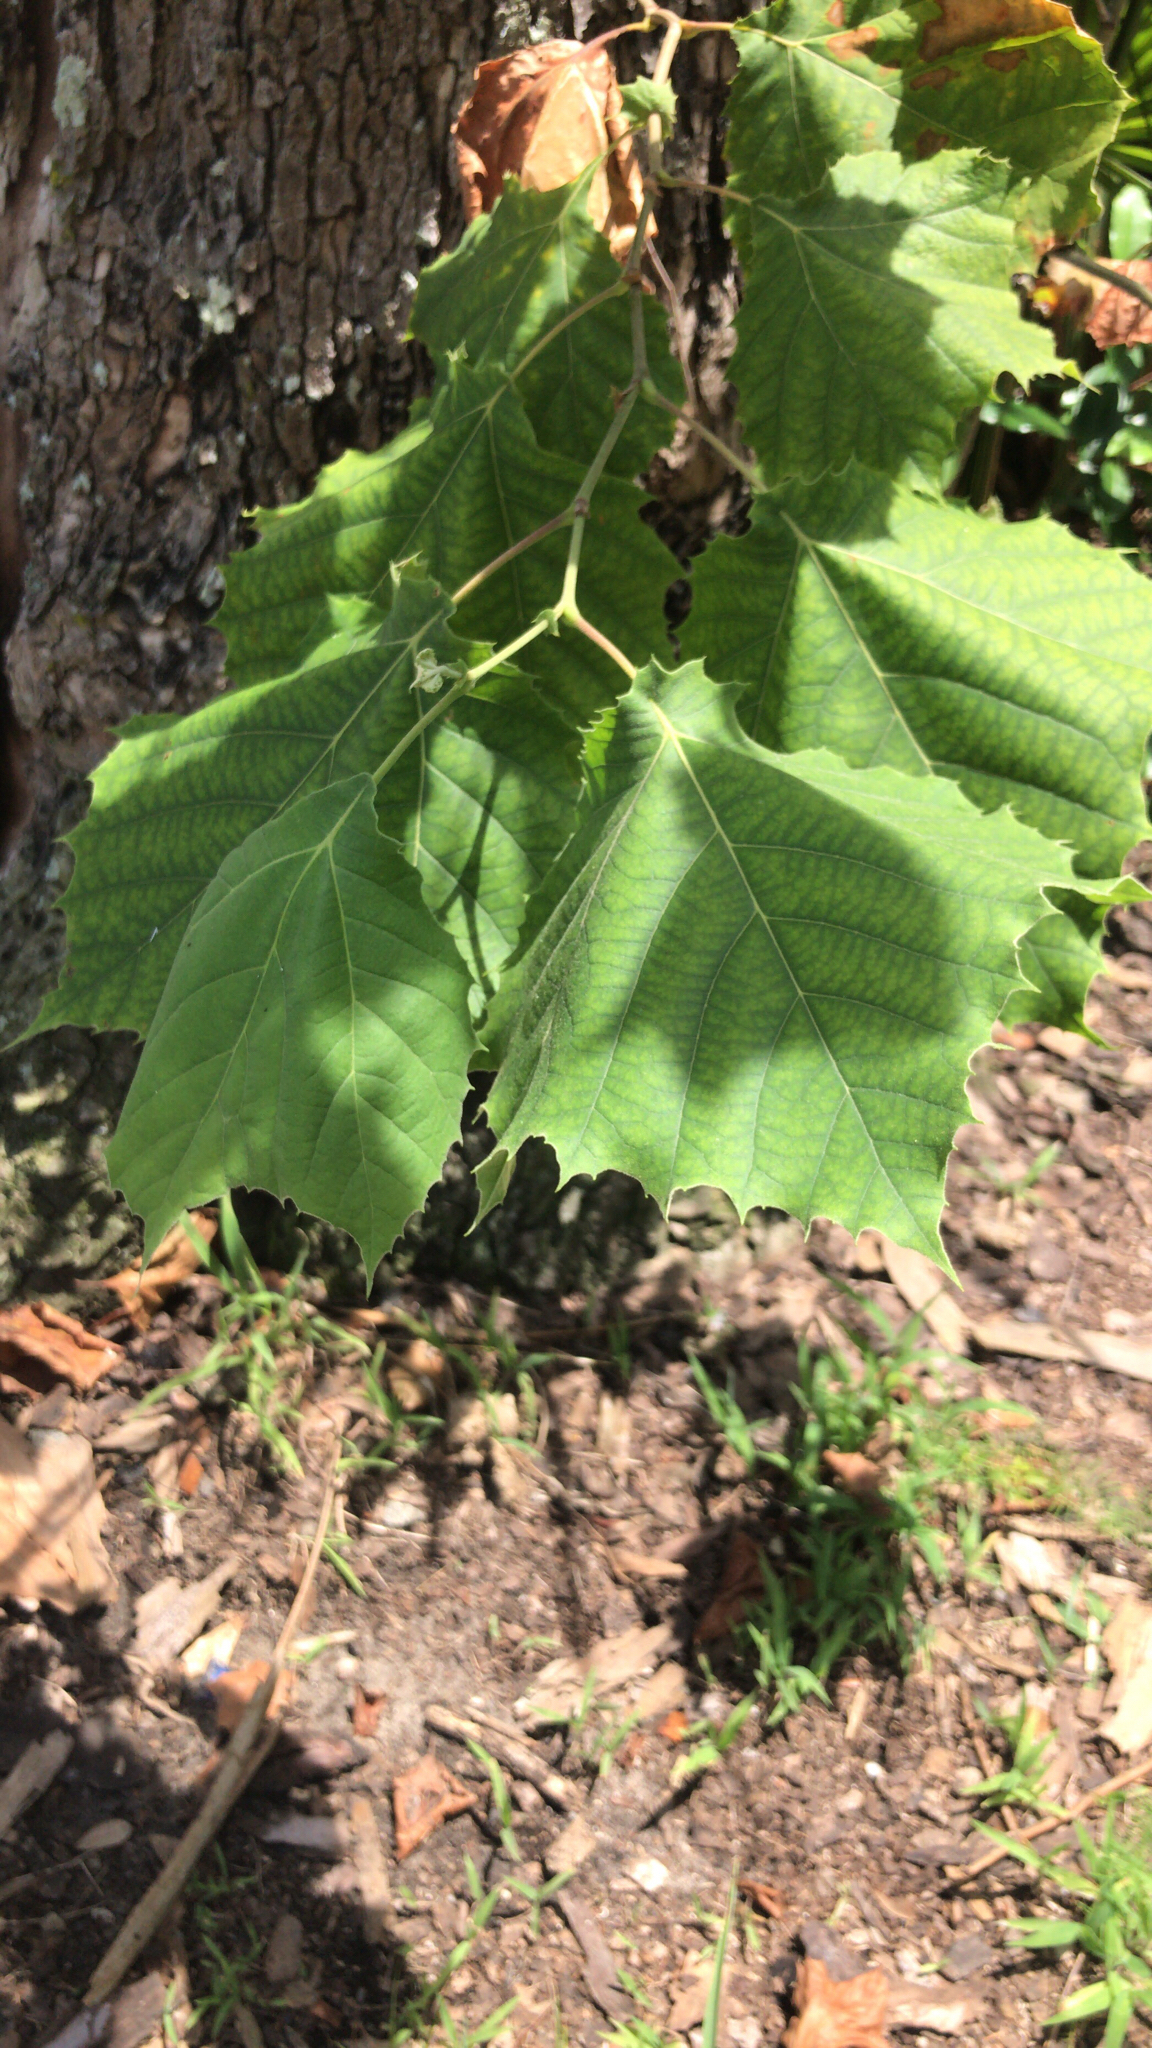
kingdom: Plantae
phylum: Tracheophyta
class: Magnoliopsida
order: Proteales
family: Platanaceae
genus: Platanus
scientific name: Platanus occidentalis
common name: American sycamore
